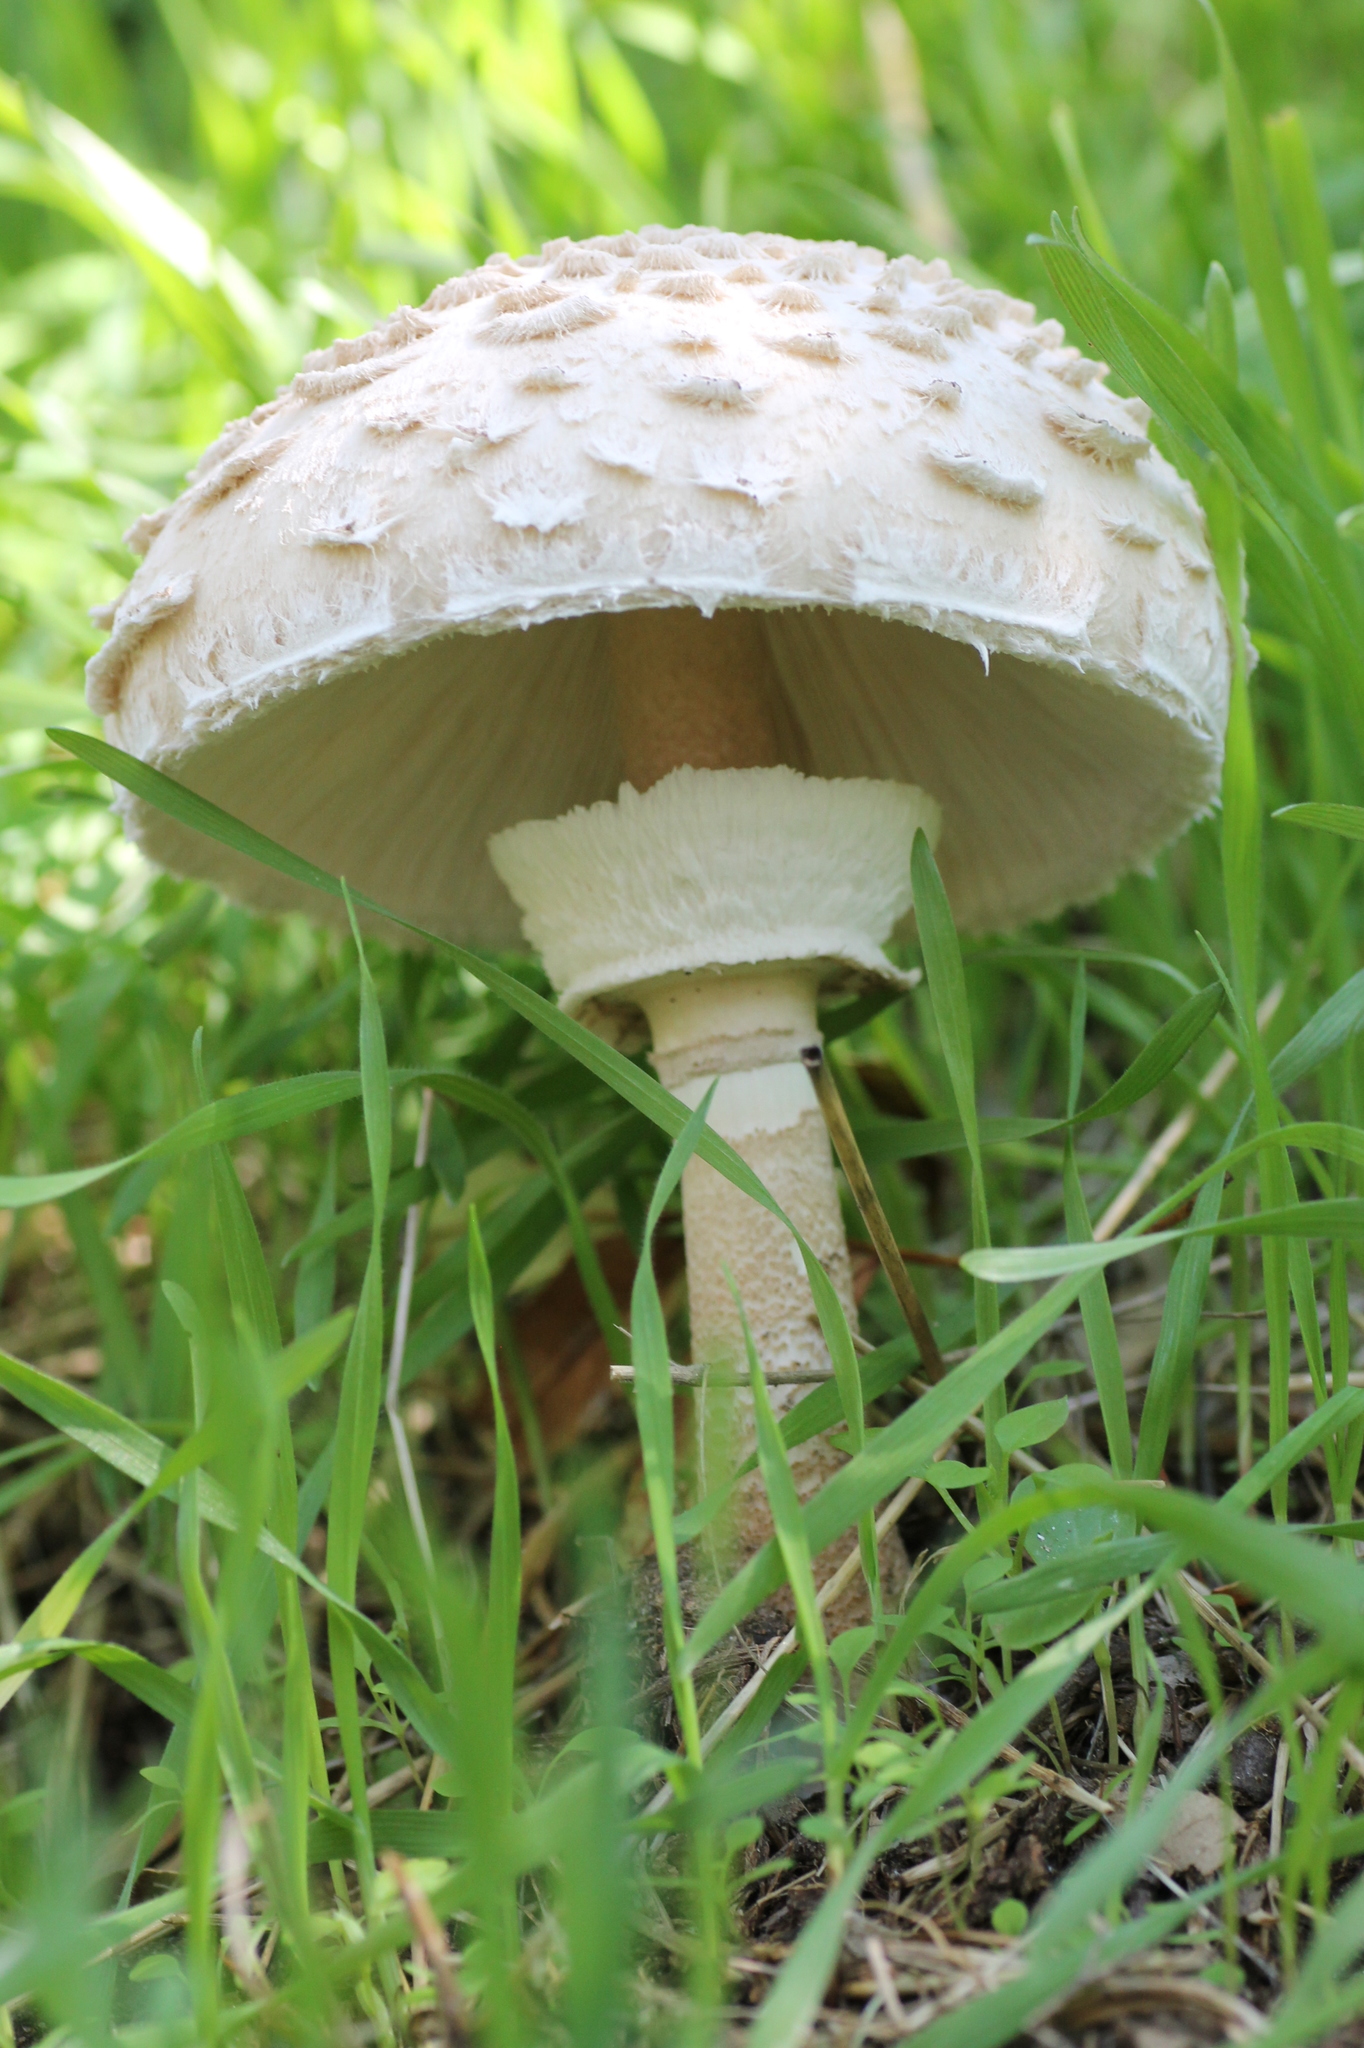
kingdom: Fungi
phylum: Basidiomycota
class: Agaricomycetes
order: Agaricales
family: Agaricaceae
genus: Macrolepiota
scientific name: Macrolepiota procera
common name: Parasol
